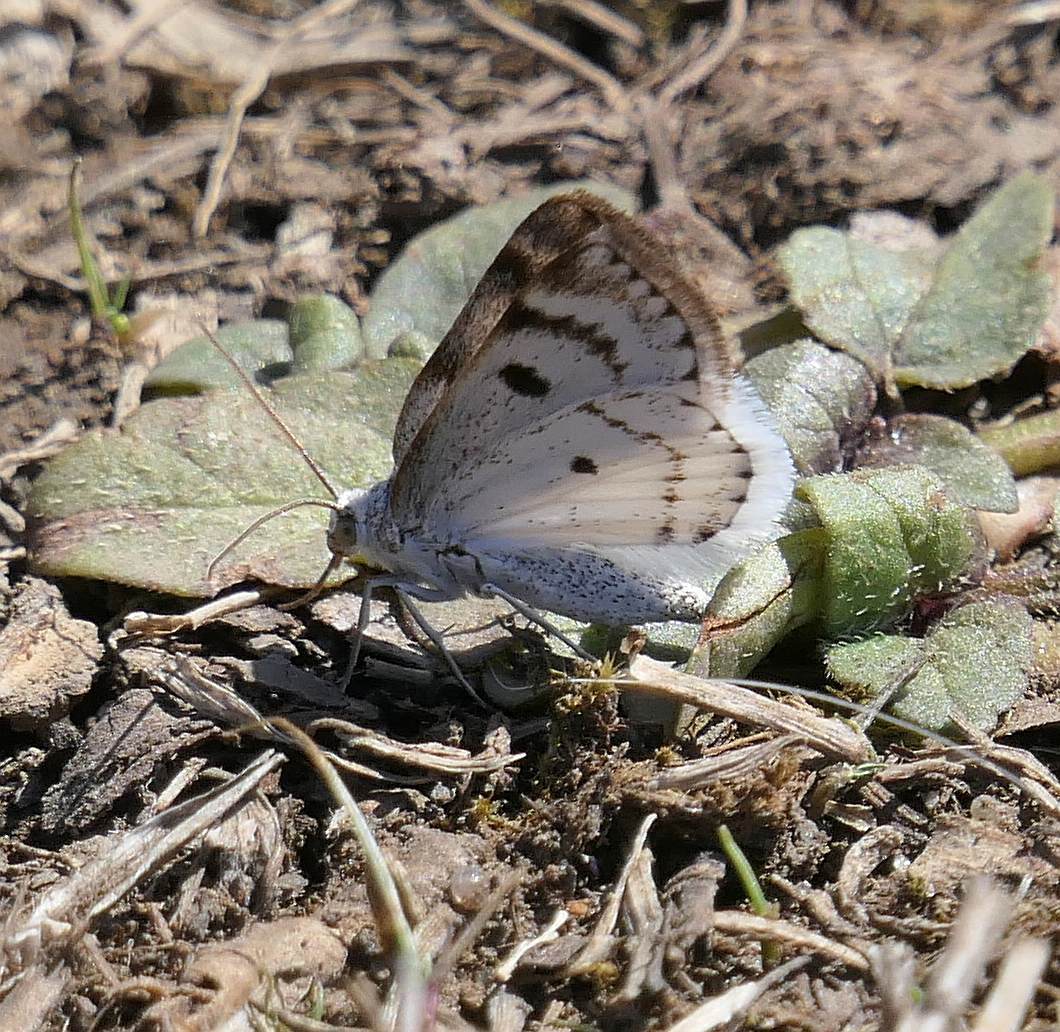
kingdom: Animalia
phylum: Arthropoda
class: Insecta
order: Lepidoptera
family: Geometridae
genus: Lomographa
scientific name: Lomographa semiclarata
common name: Bluish spring moth
